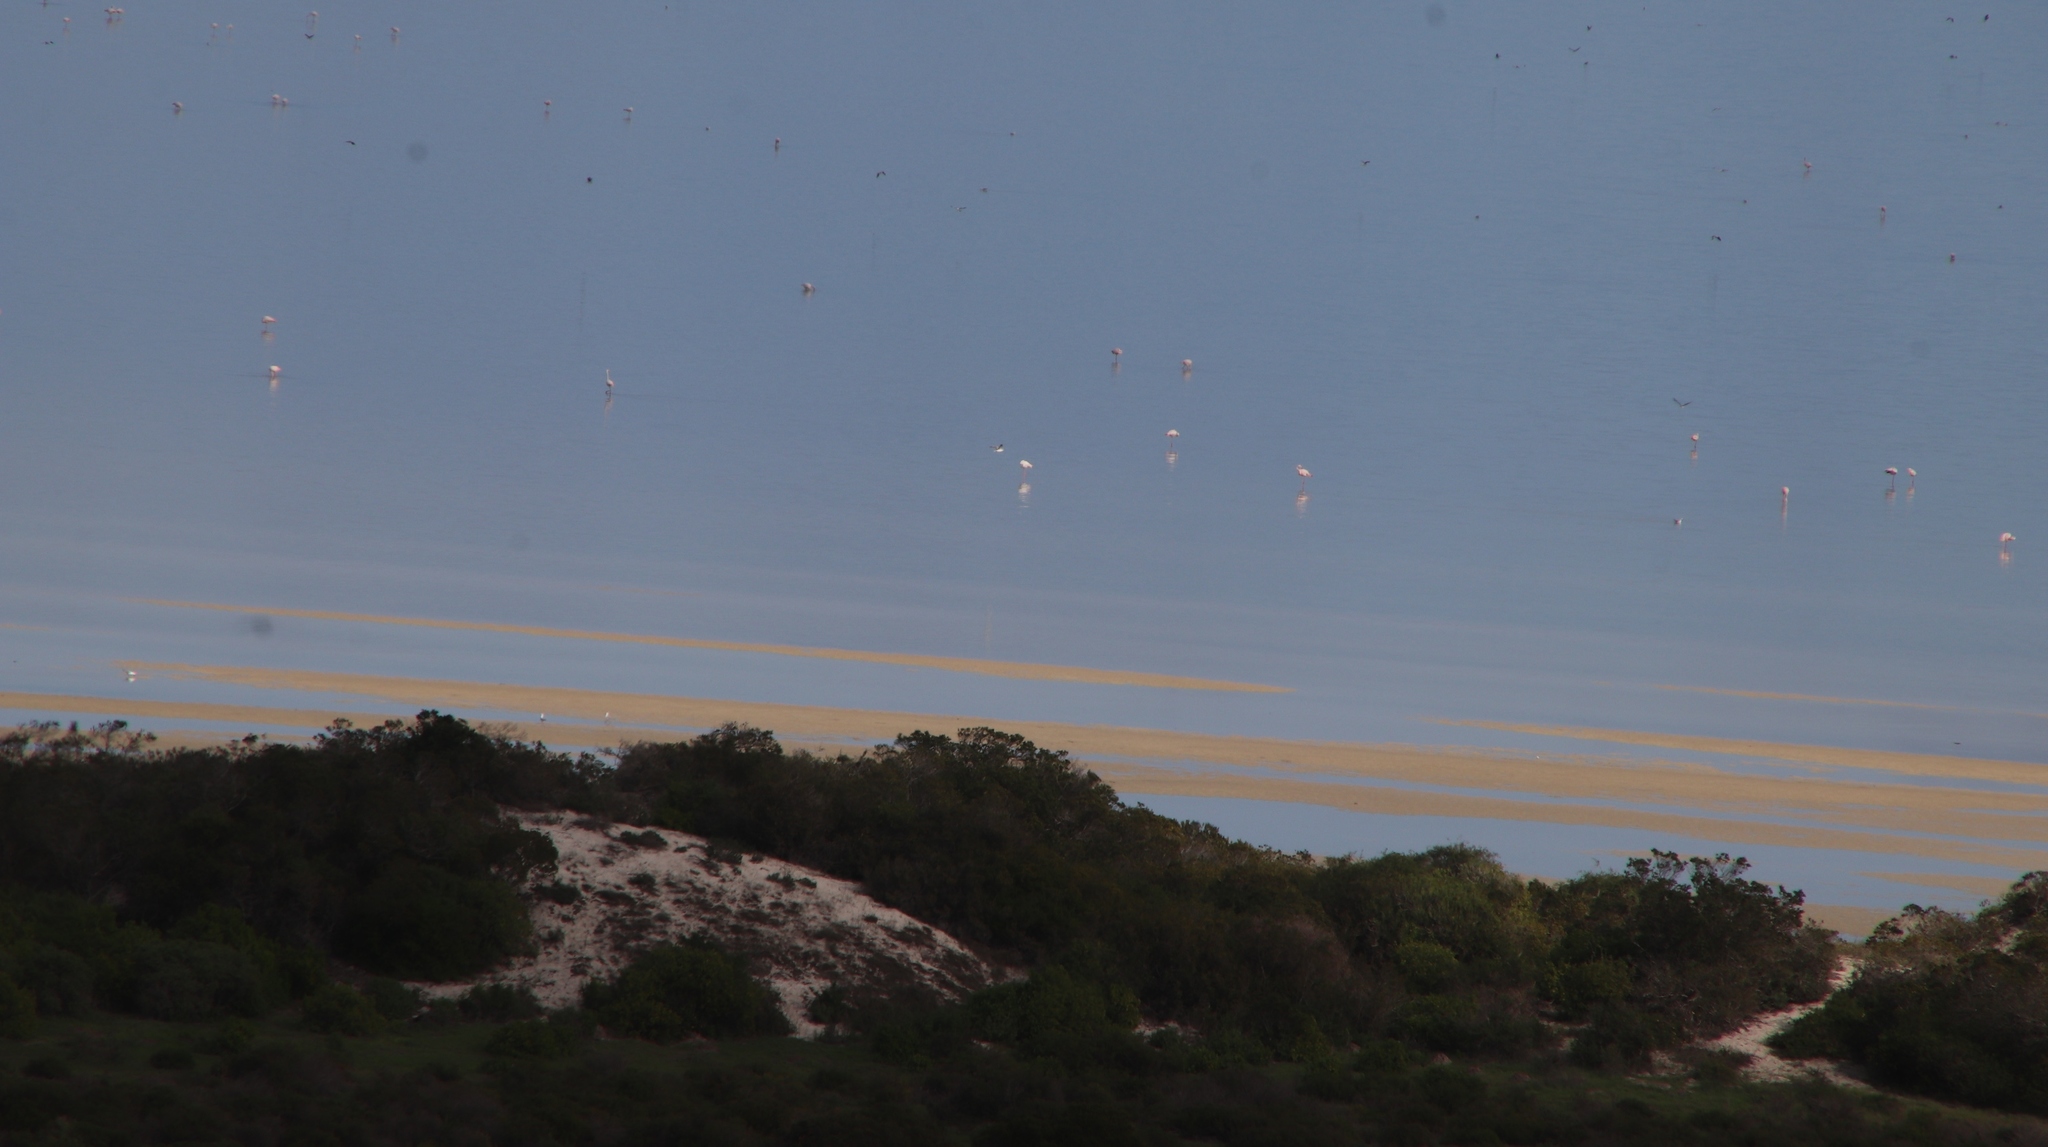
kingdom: Animalia
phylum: Chordata
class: Aves
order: Phoenicopteriformes
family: Phoenicopteridae
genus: Phoenicopterus
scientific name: Phoenicopterus roseus
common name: Greater flamingo
